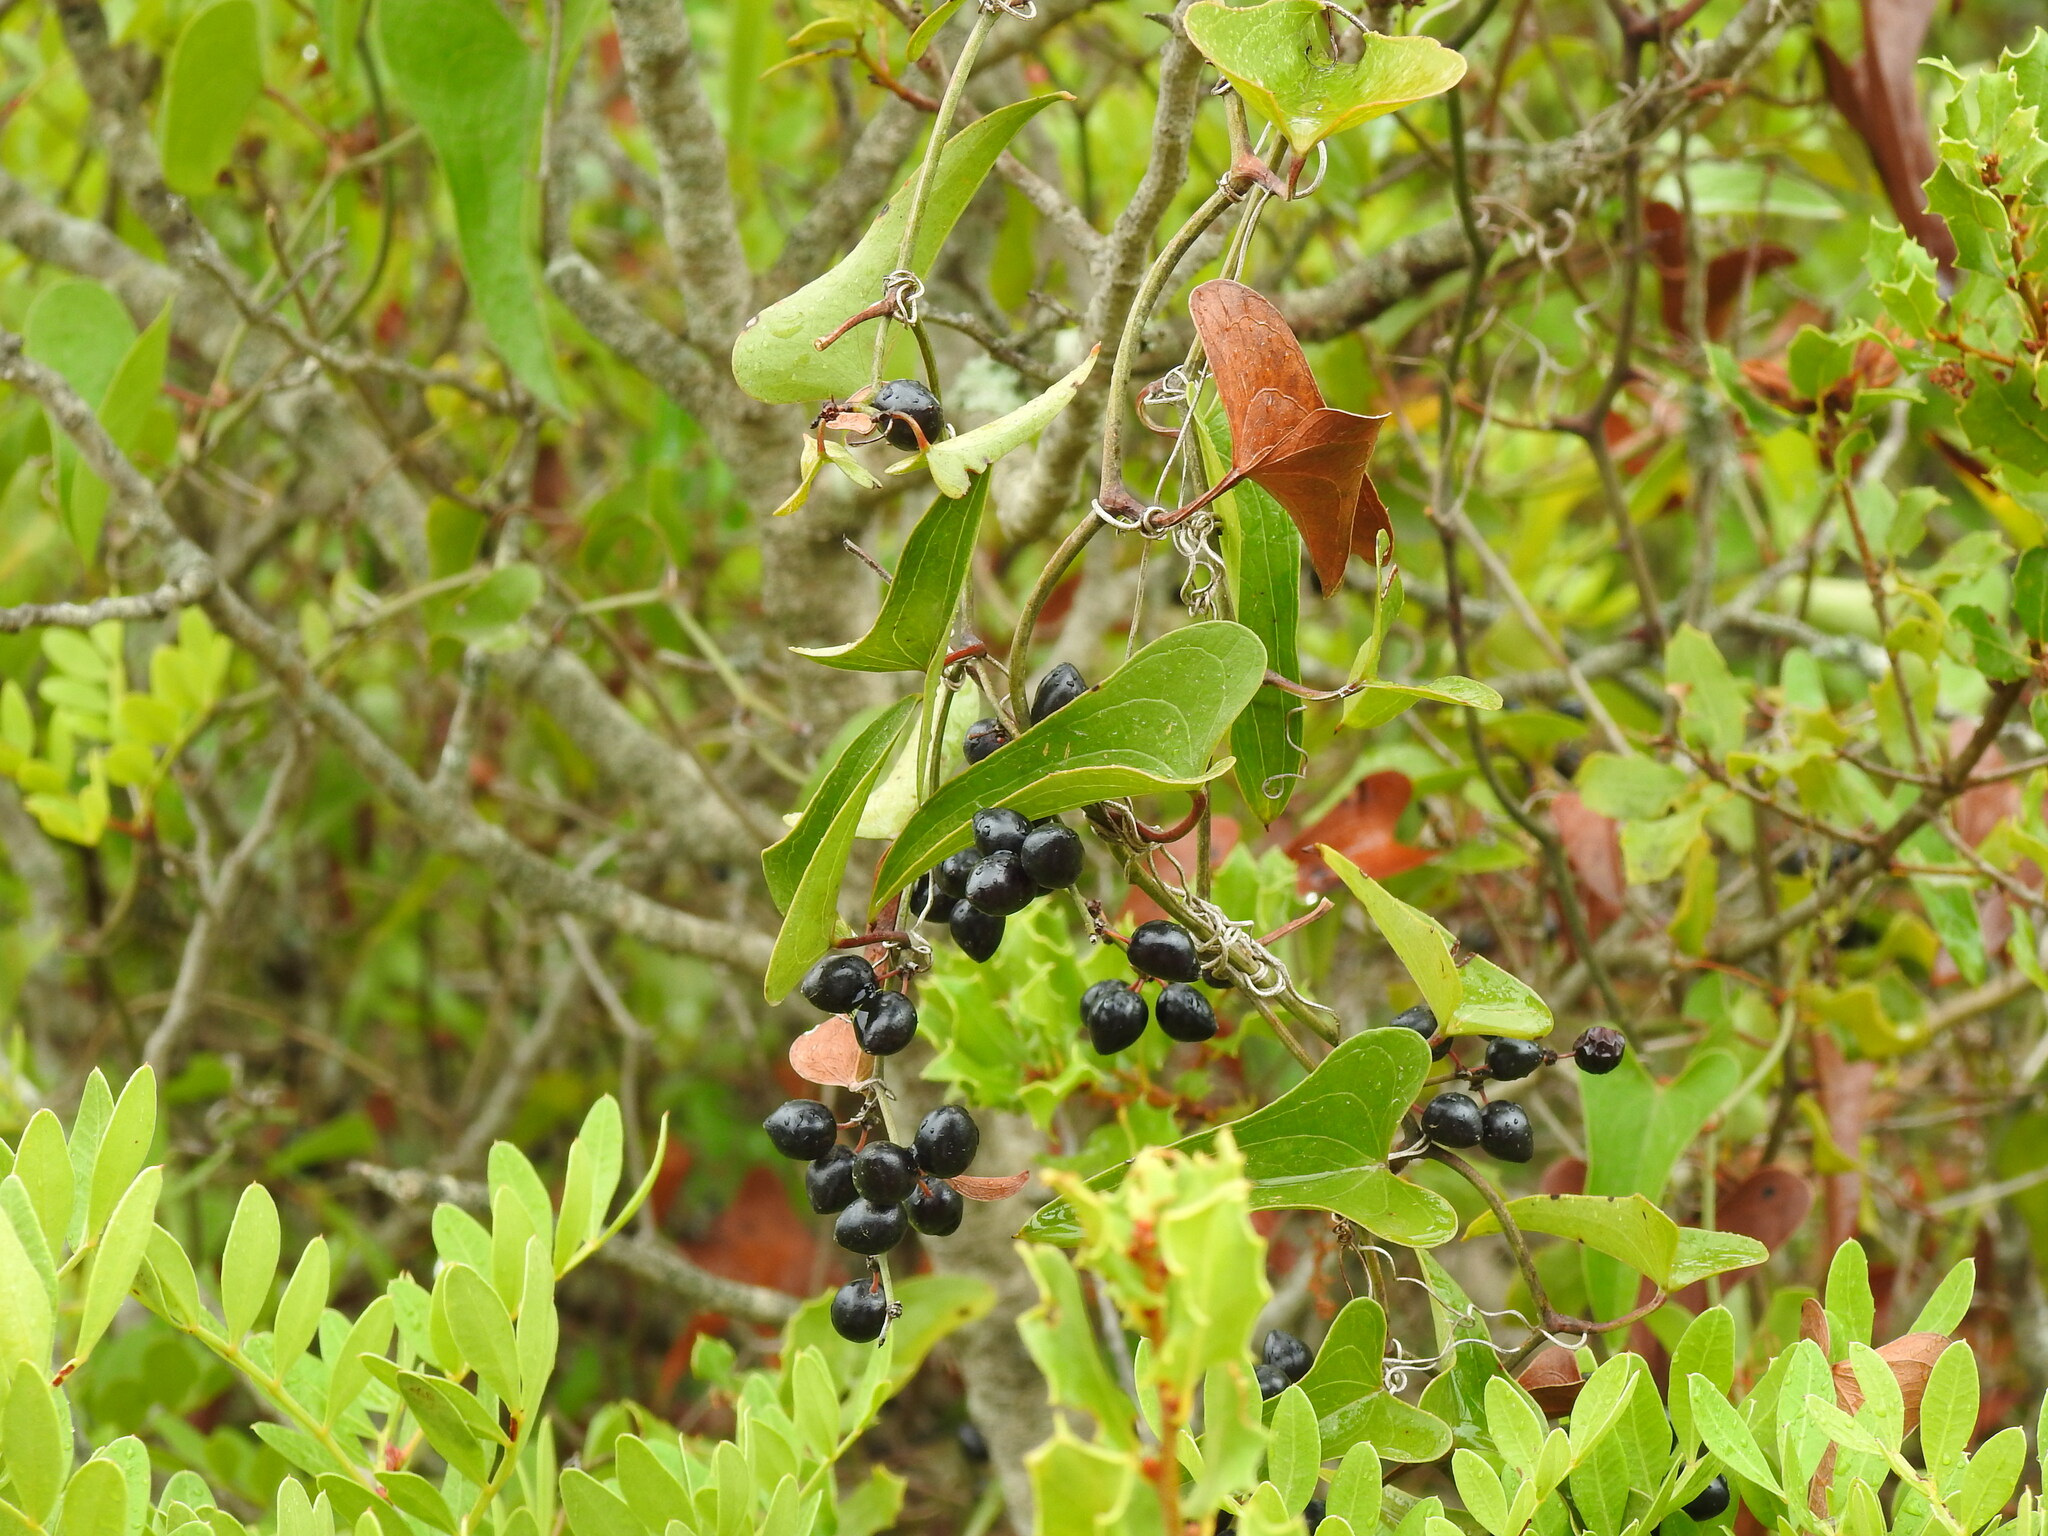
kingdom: Plantae
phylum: Tracheophyta
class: Liliopsida
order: Liliales
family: Smilacaceae
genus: Smilax
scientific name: Smilax aspera
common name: Common smilax
